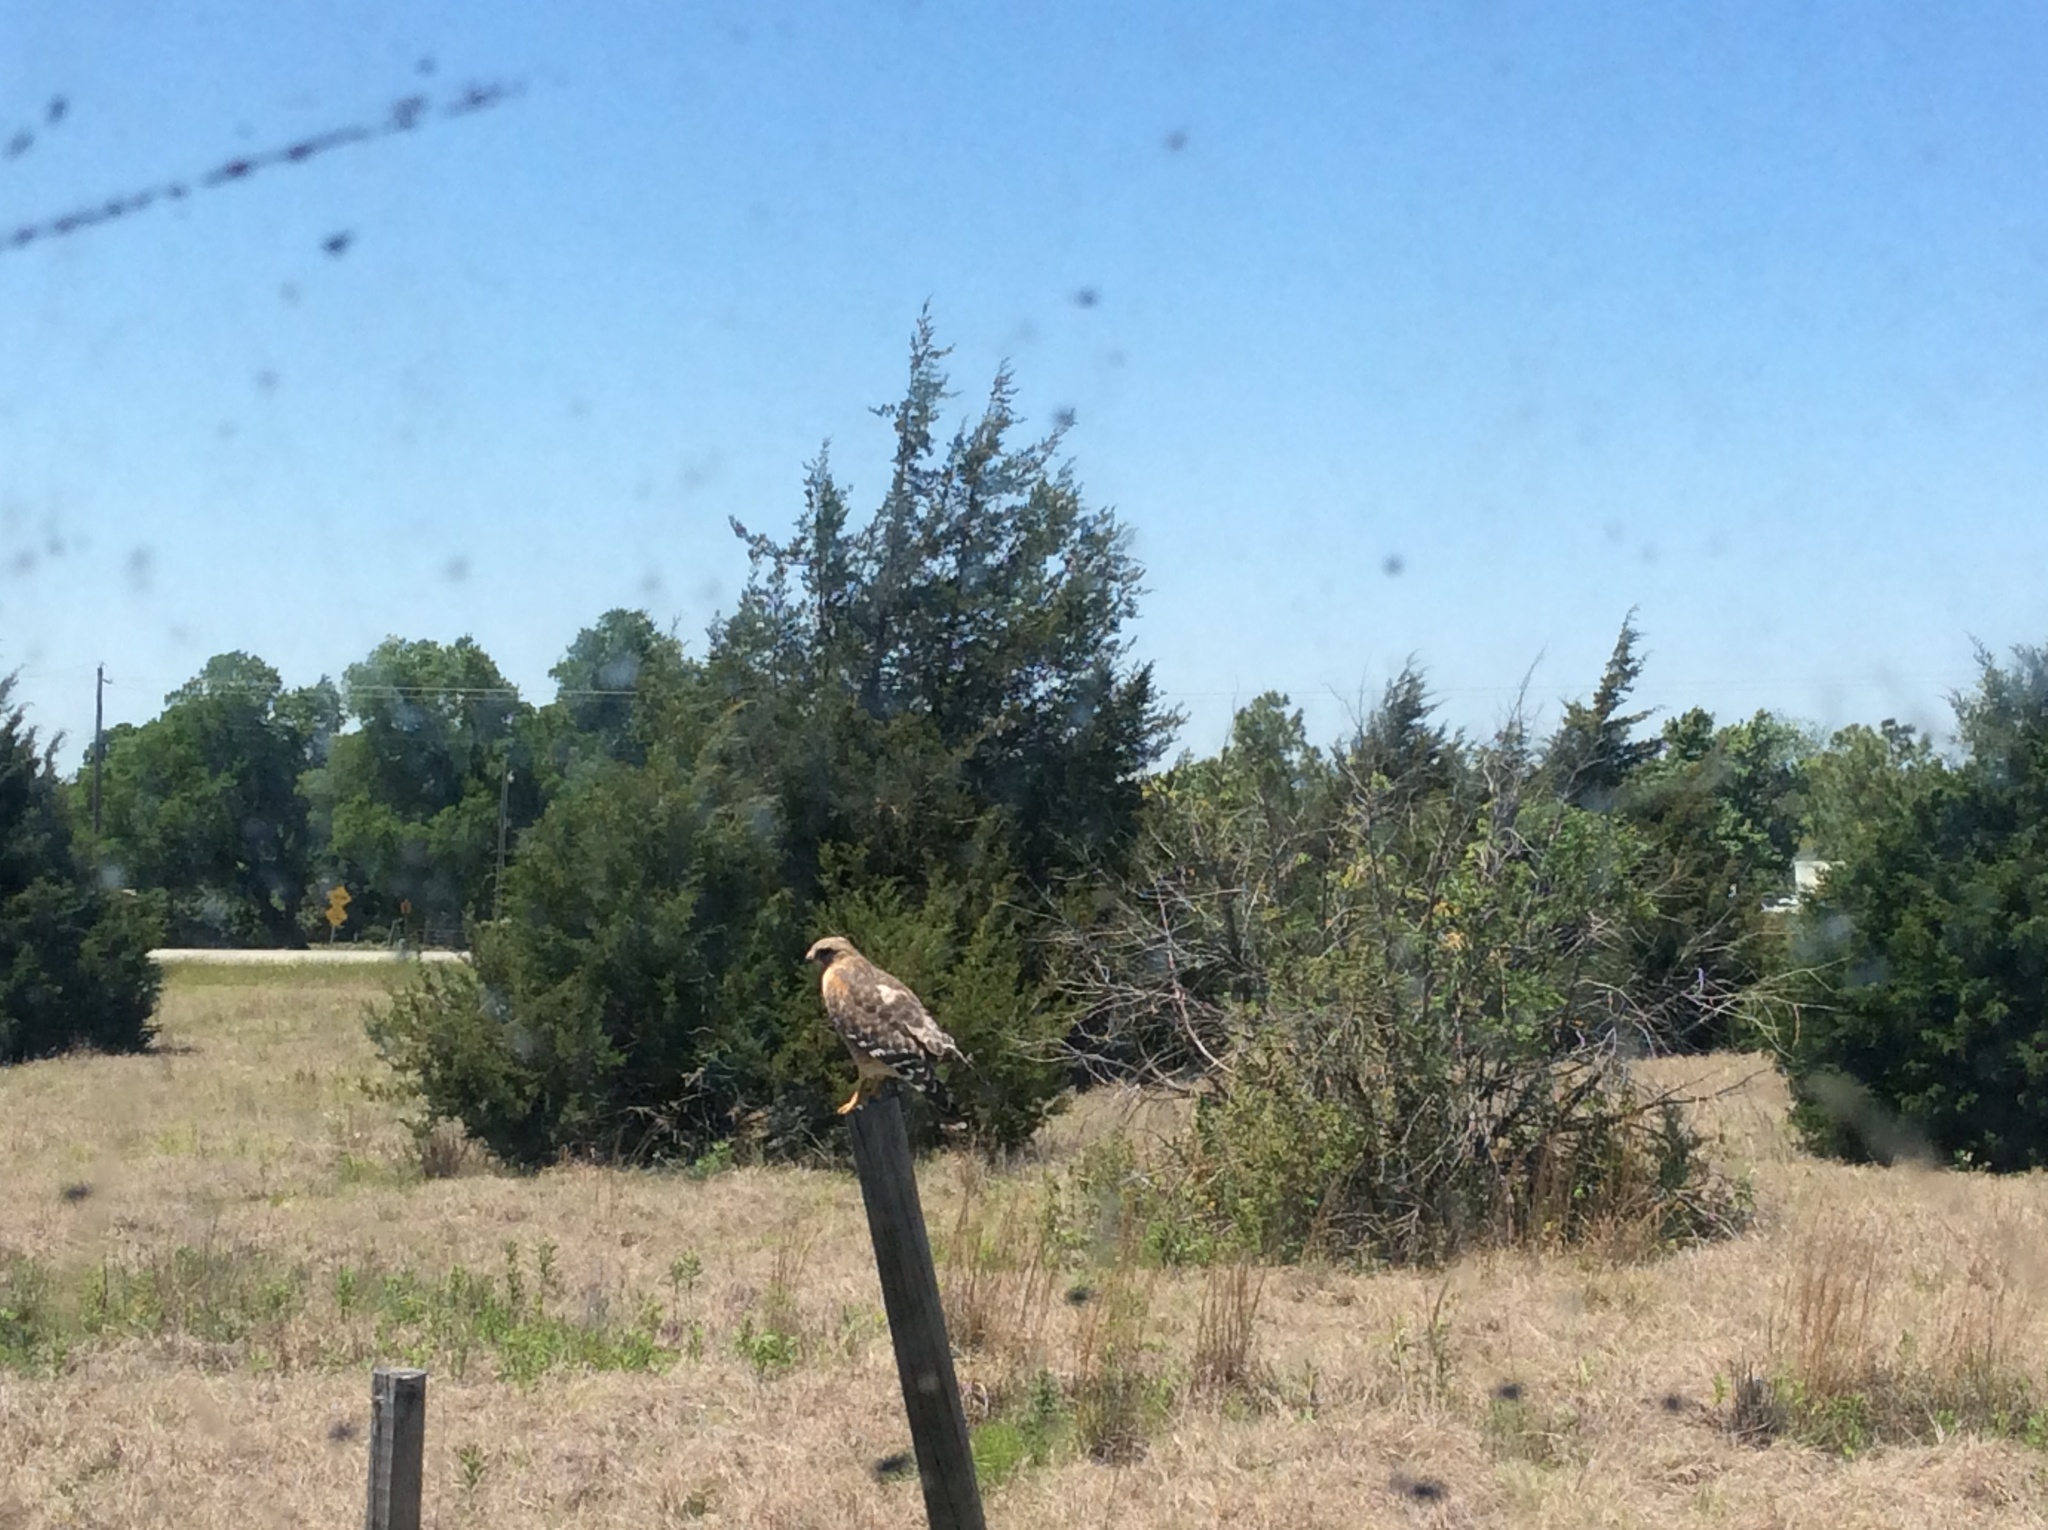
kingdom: Animalia
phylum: Chordata
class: Aves
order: Accipitriformes
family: Accipitridae
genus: Buteo
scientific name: Buteo lineatus
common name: Red-shouldered hawk
